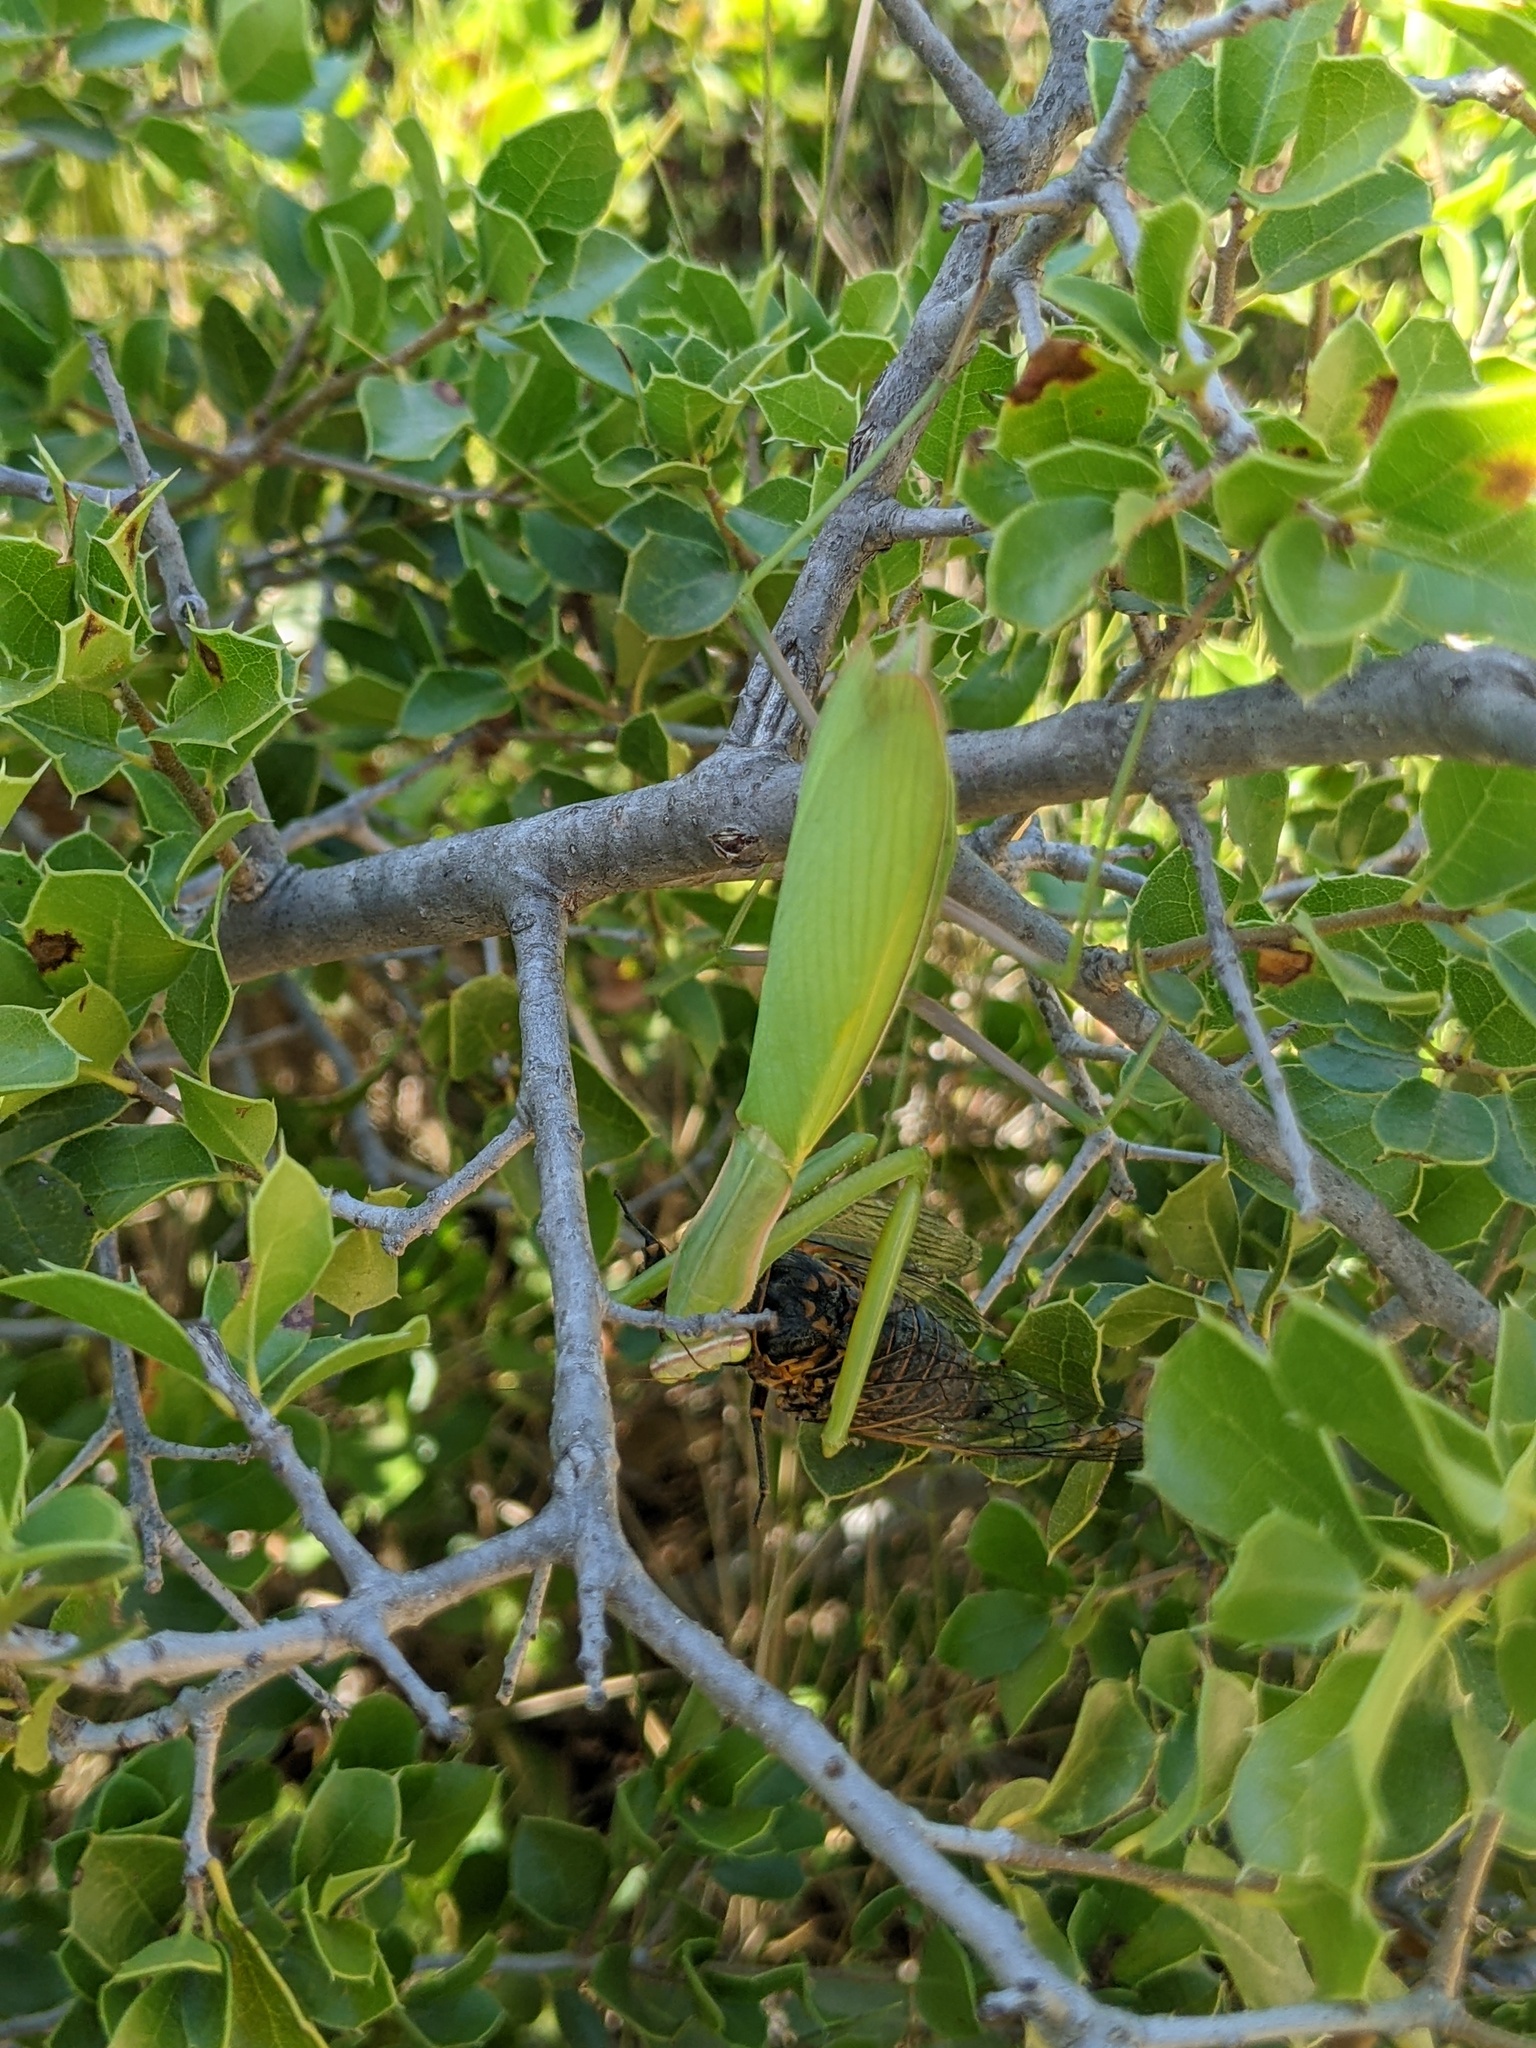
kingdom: Animalia
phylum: Arthropoda
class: Insecta
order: Mantodea
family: Mantidae
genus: Mantis
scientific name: Mantis religiosa
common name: Praying mantis
